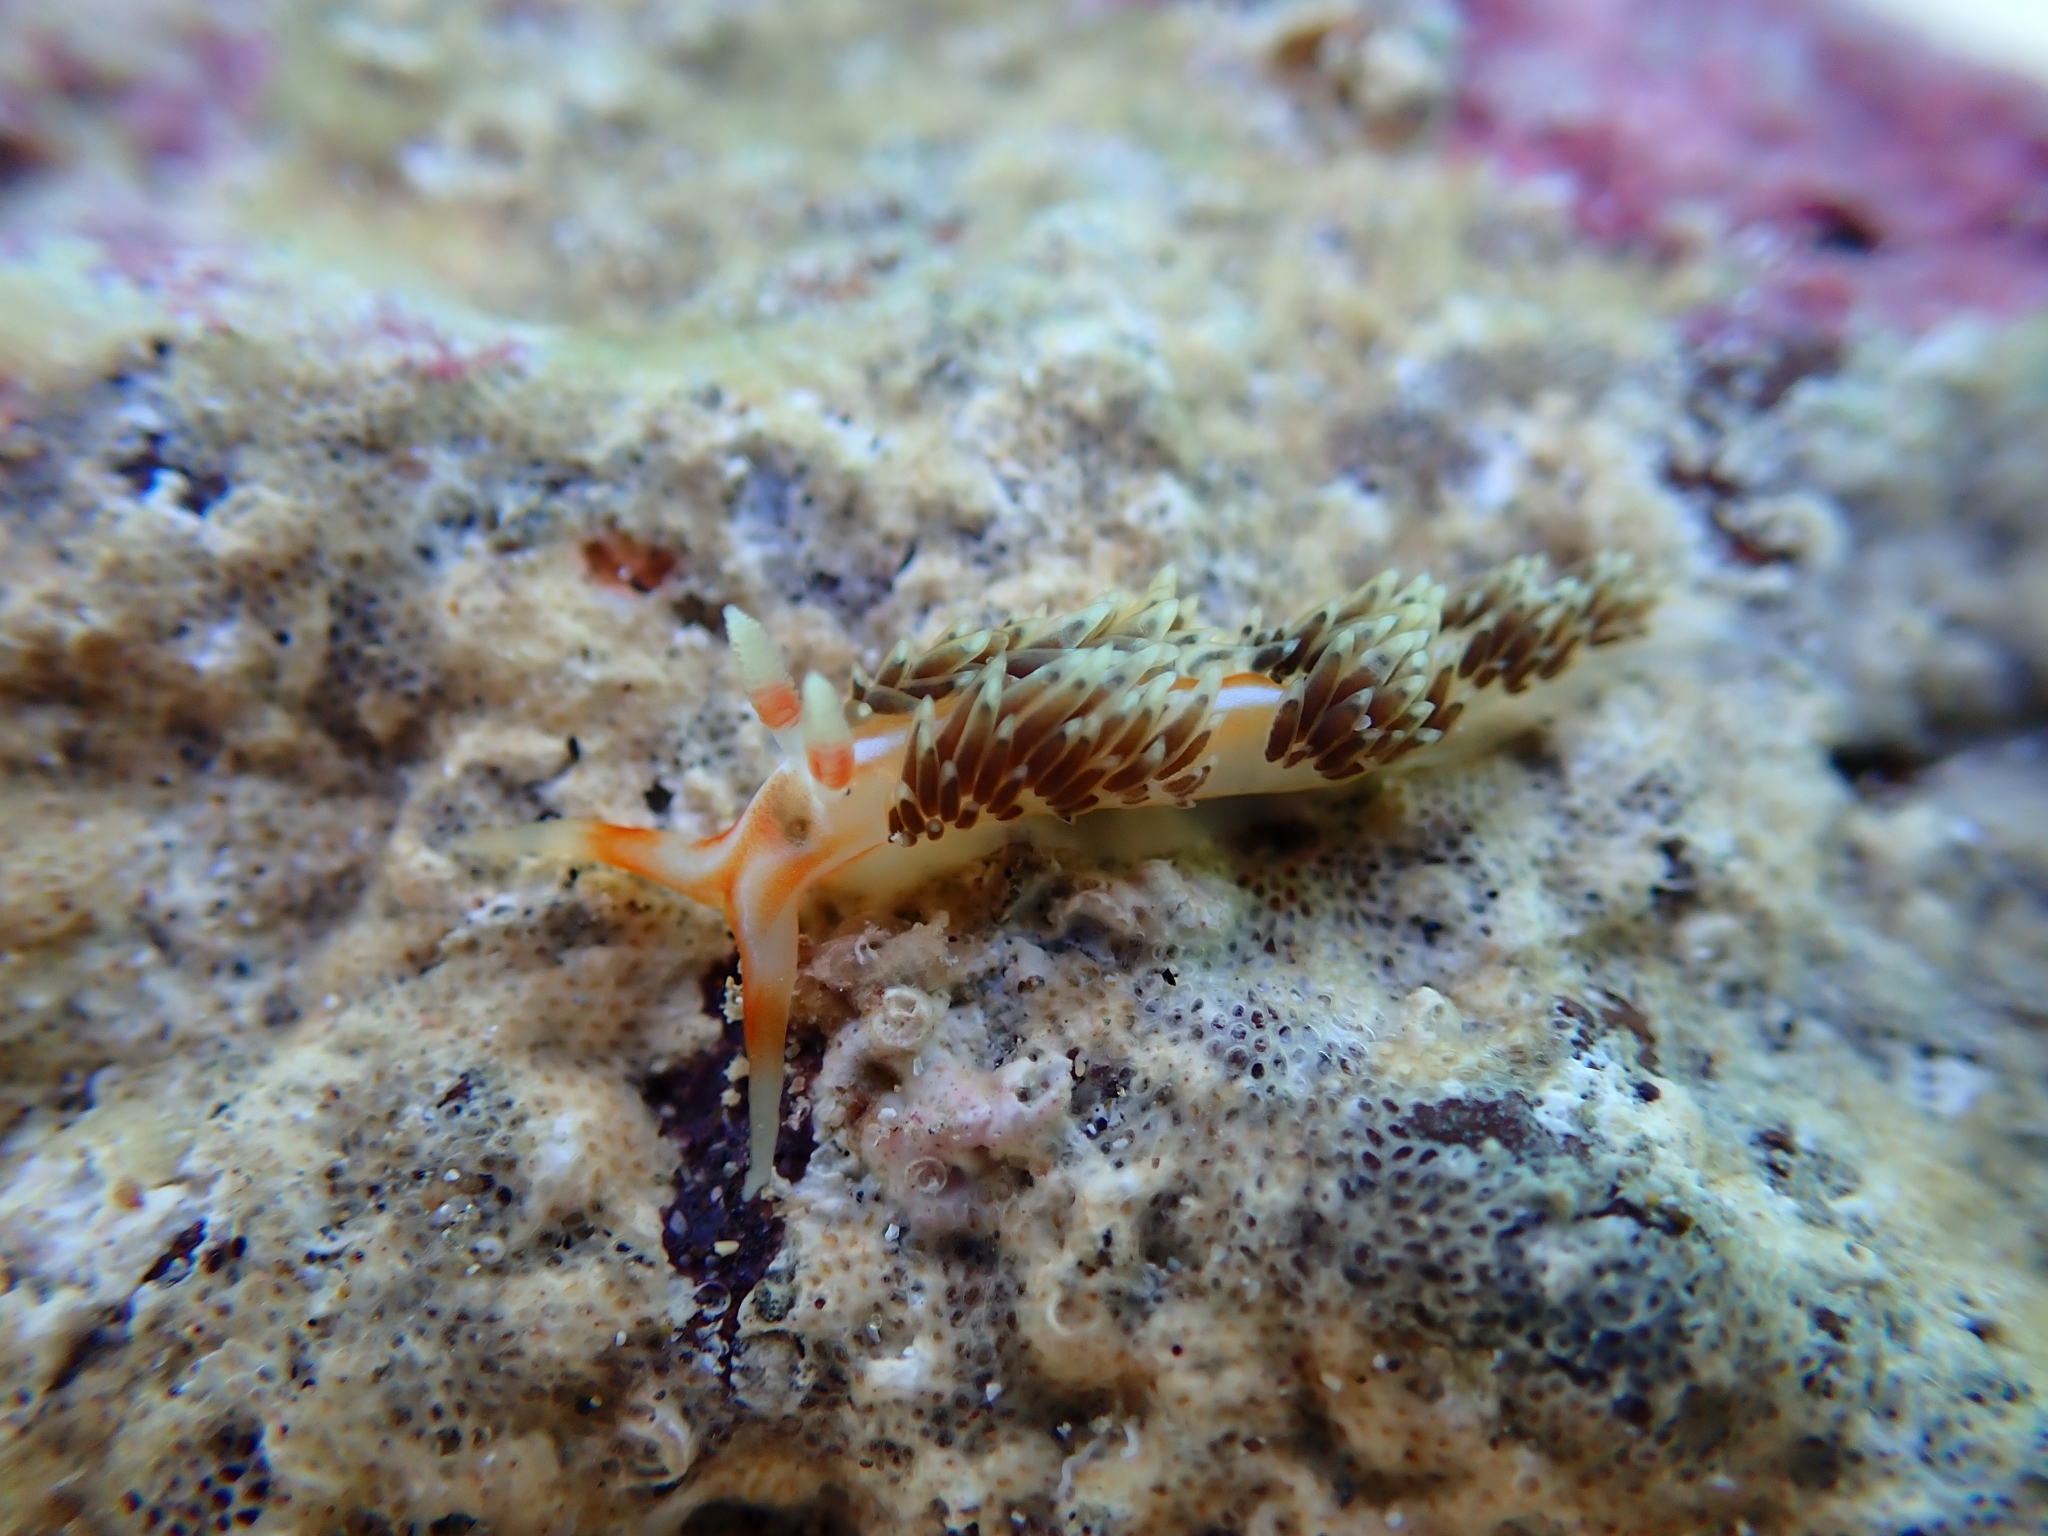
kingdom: Animalia
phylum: Mollusca
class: Gastropoda
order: Nudibranchia
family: Facelinidae
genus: Phidiana
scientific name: Phidiana lynceus
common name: Lynx nudibranch
